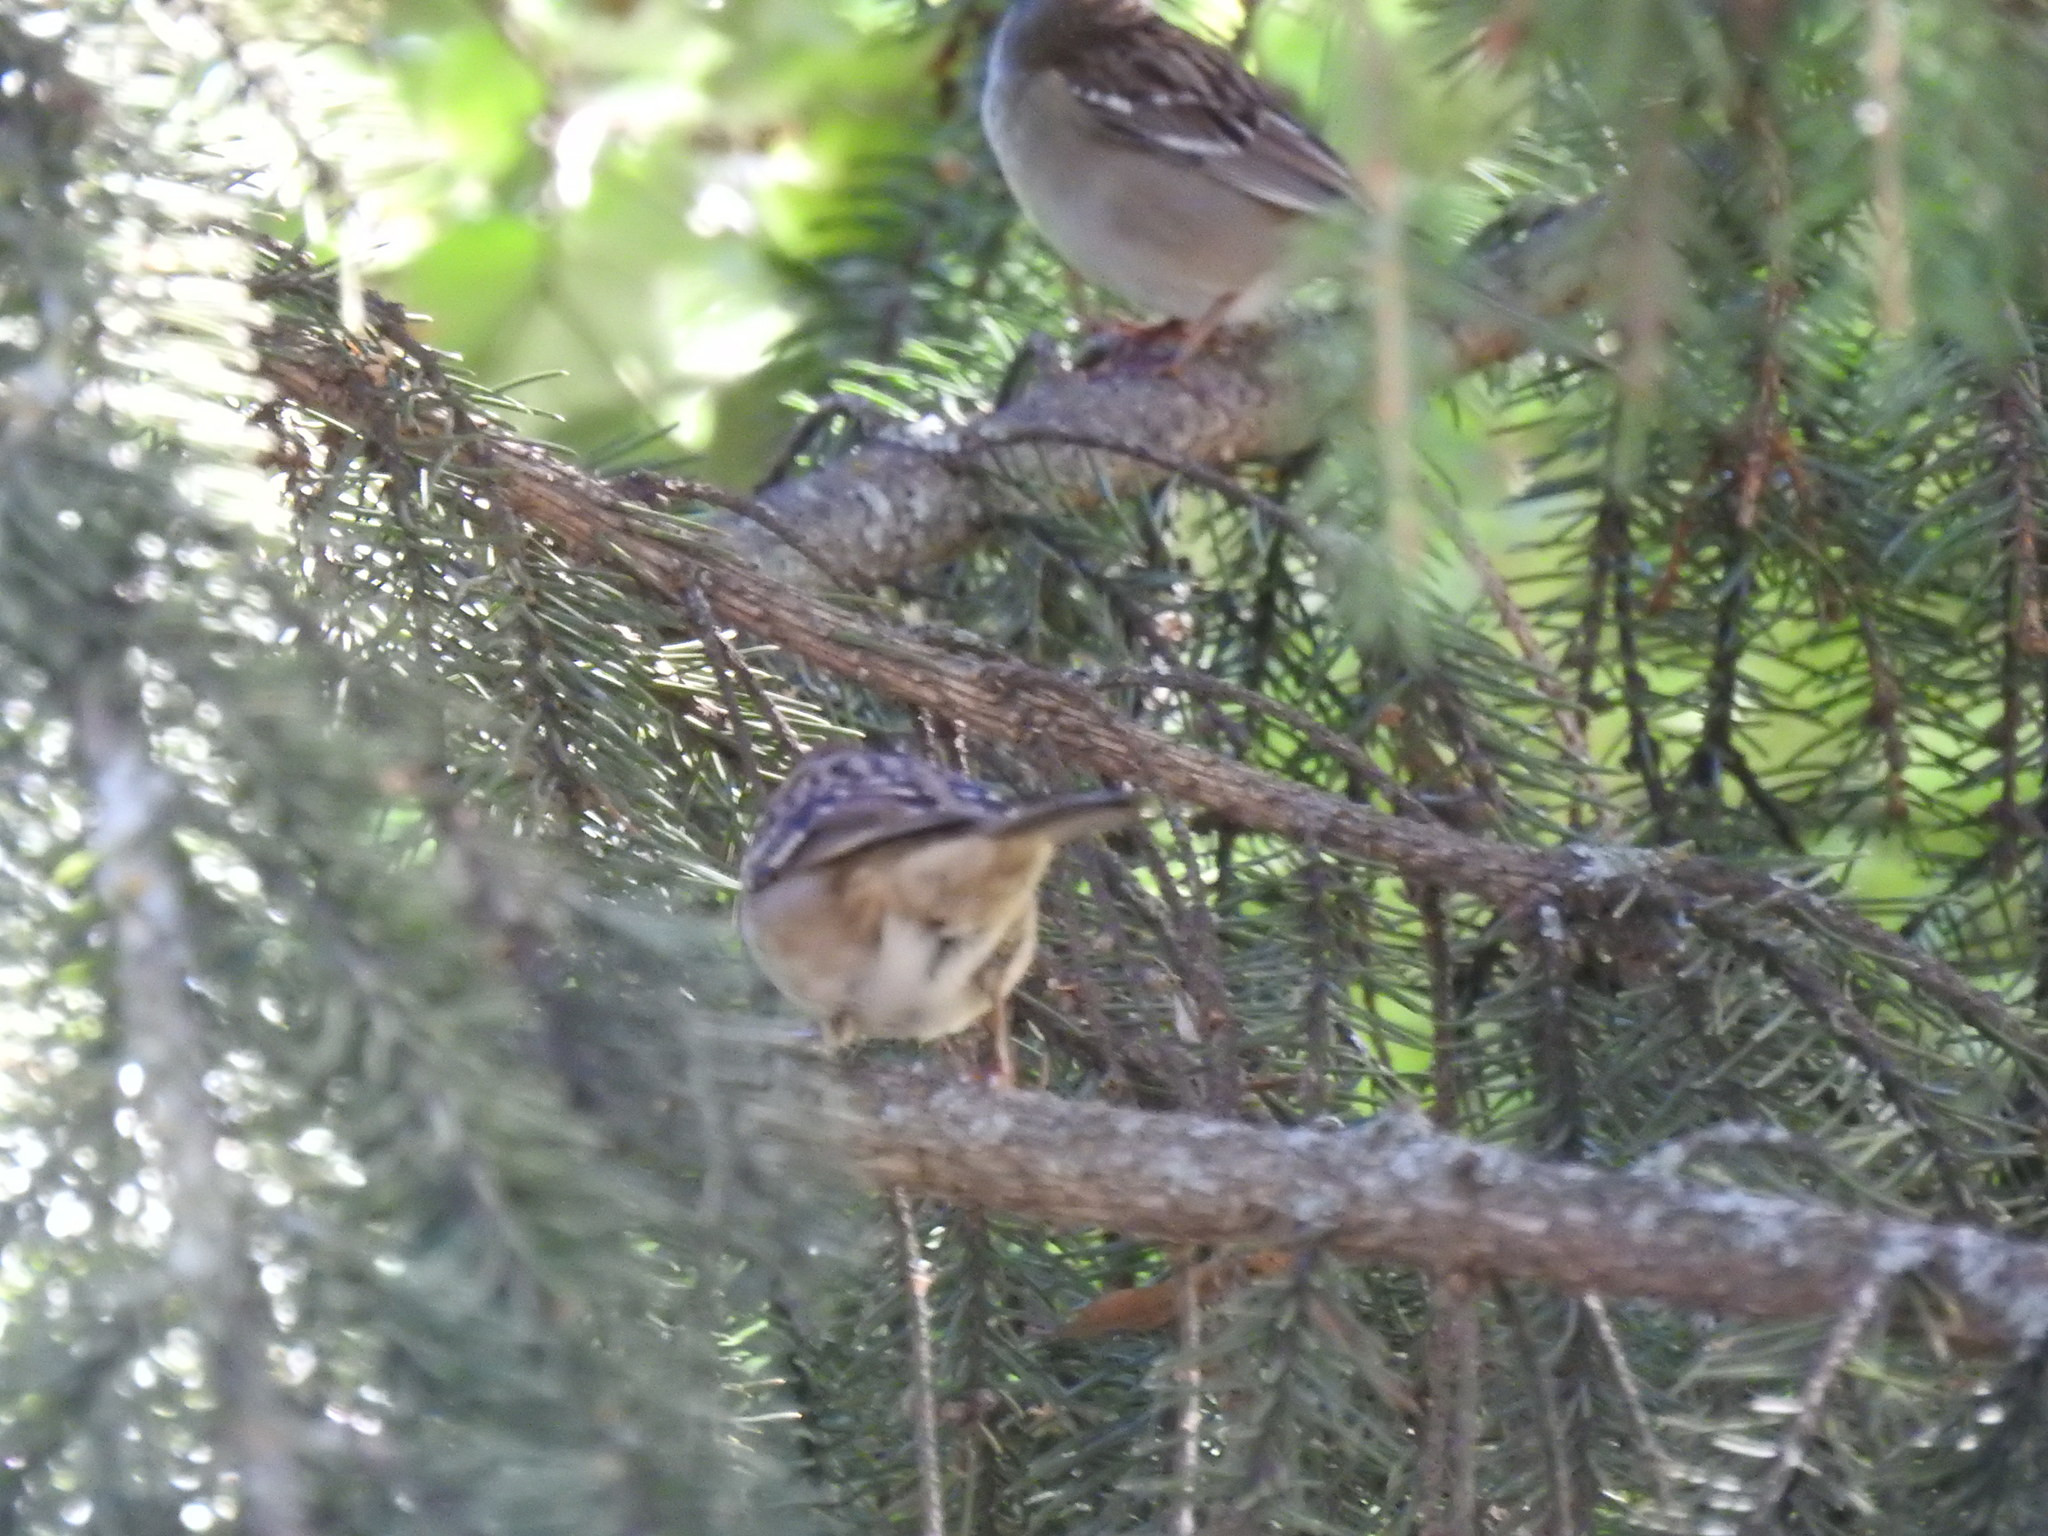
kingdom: Animalia
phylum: Chordata
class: Aves
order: Passeriformes
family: Passerellidae
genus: Zonotrichia
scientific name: Zonotrichia leucophrys
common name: White-crowned sparrow
